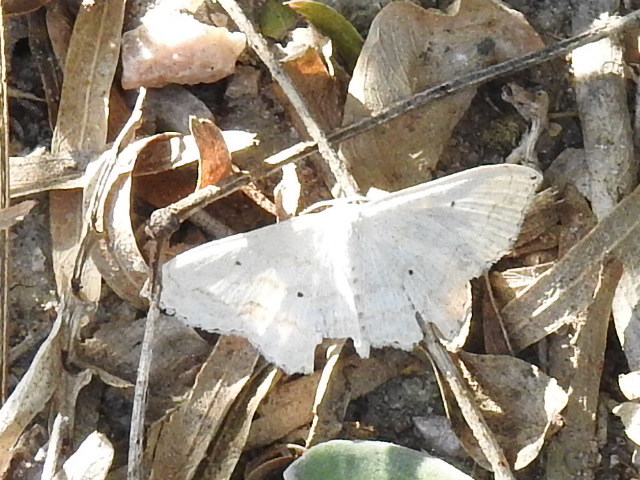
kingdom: Animalia
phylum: Arthropoda
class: Insecta
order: Lepidoptera
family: Geometridae
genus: Scopula
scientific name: Scopula umbilicata
